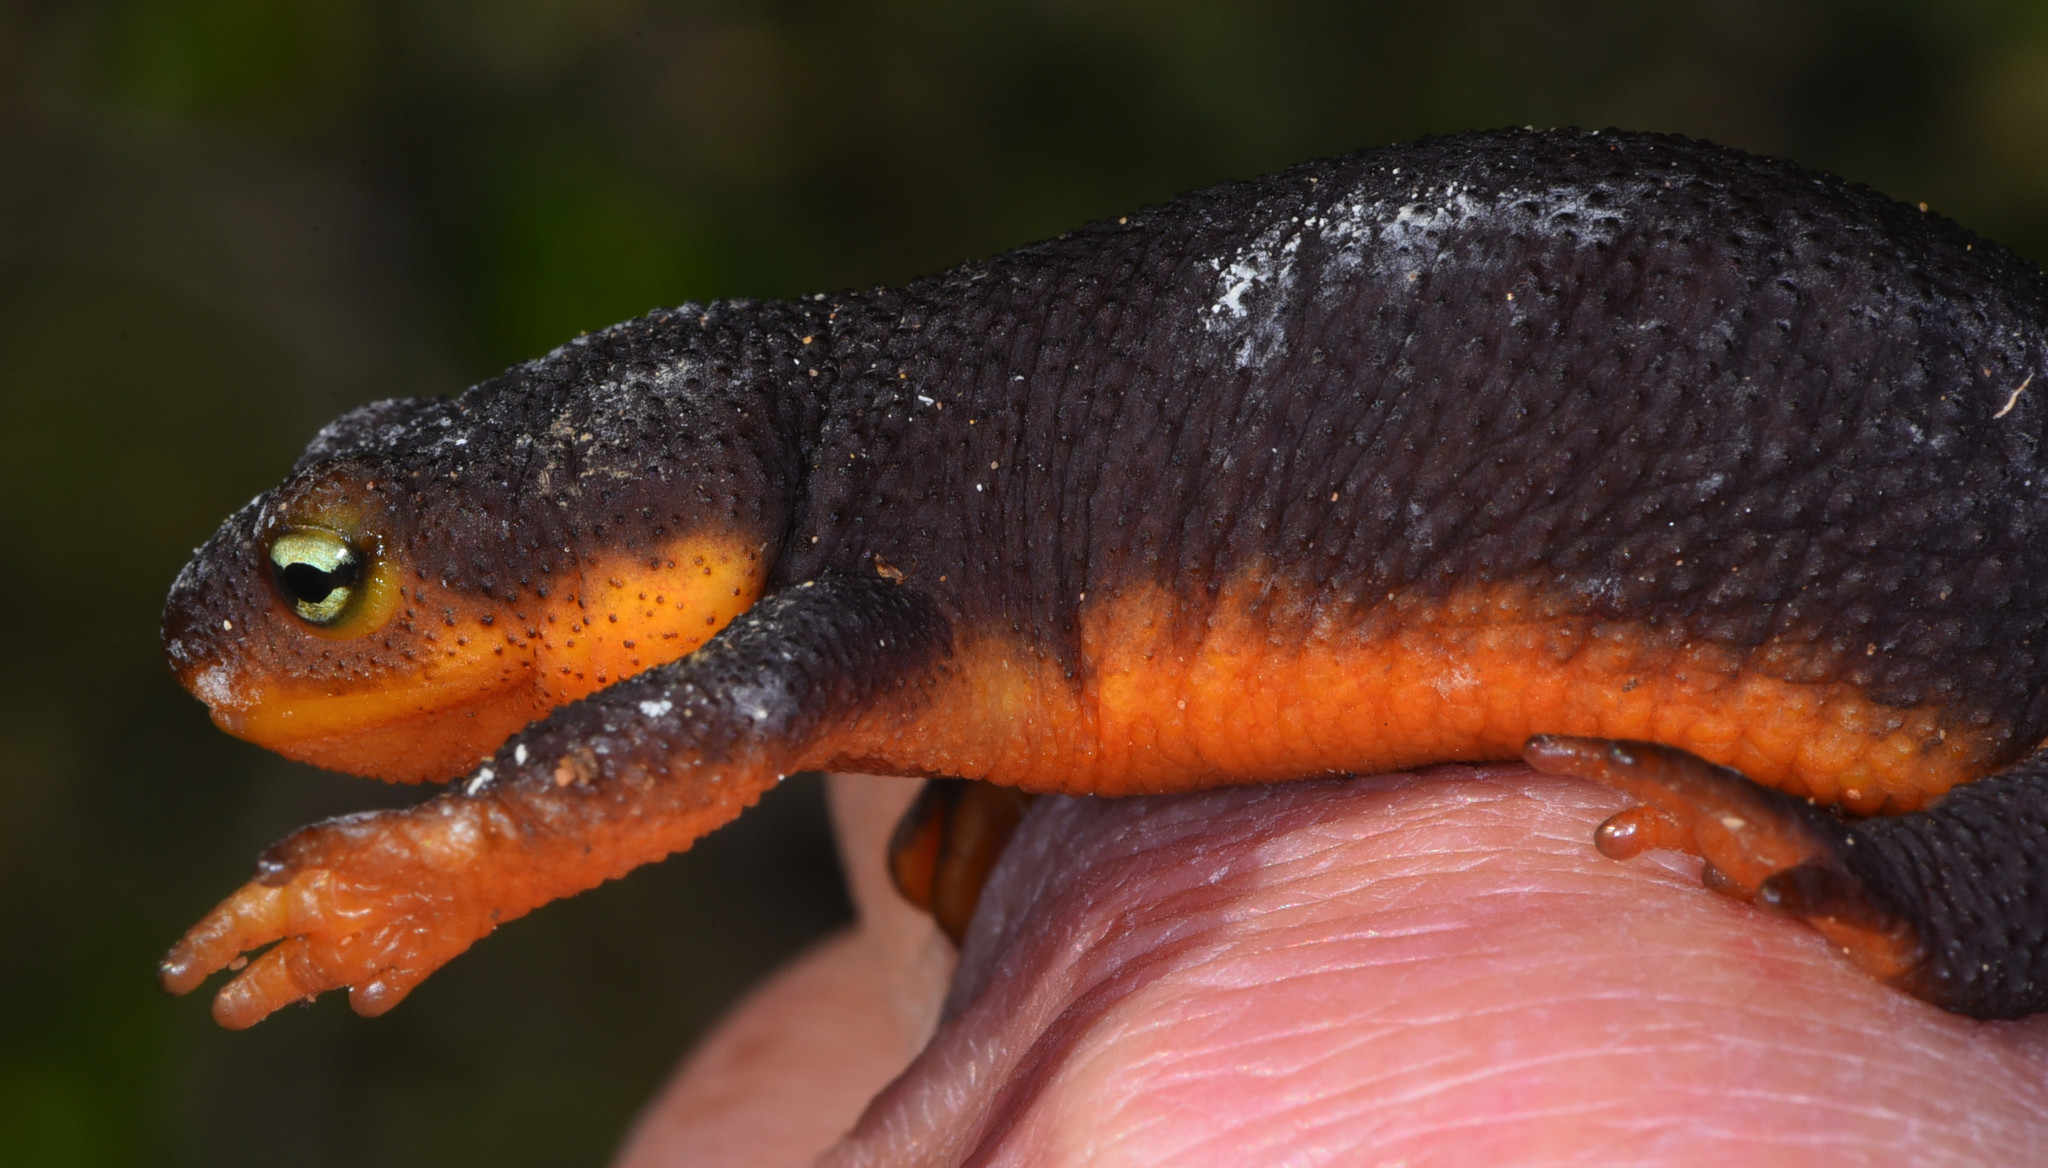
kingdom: Animalia
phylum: Chordata
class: Amphibia
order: Caudata
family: Salamandridae
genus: Taricha
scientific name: Taricha granulosa
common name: Roughskin newt
